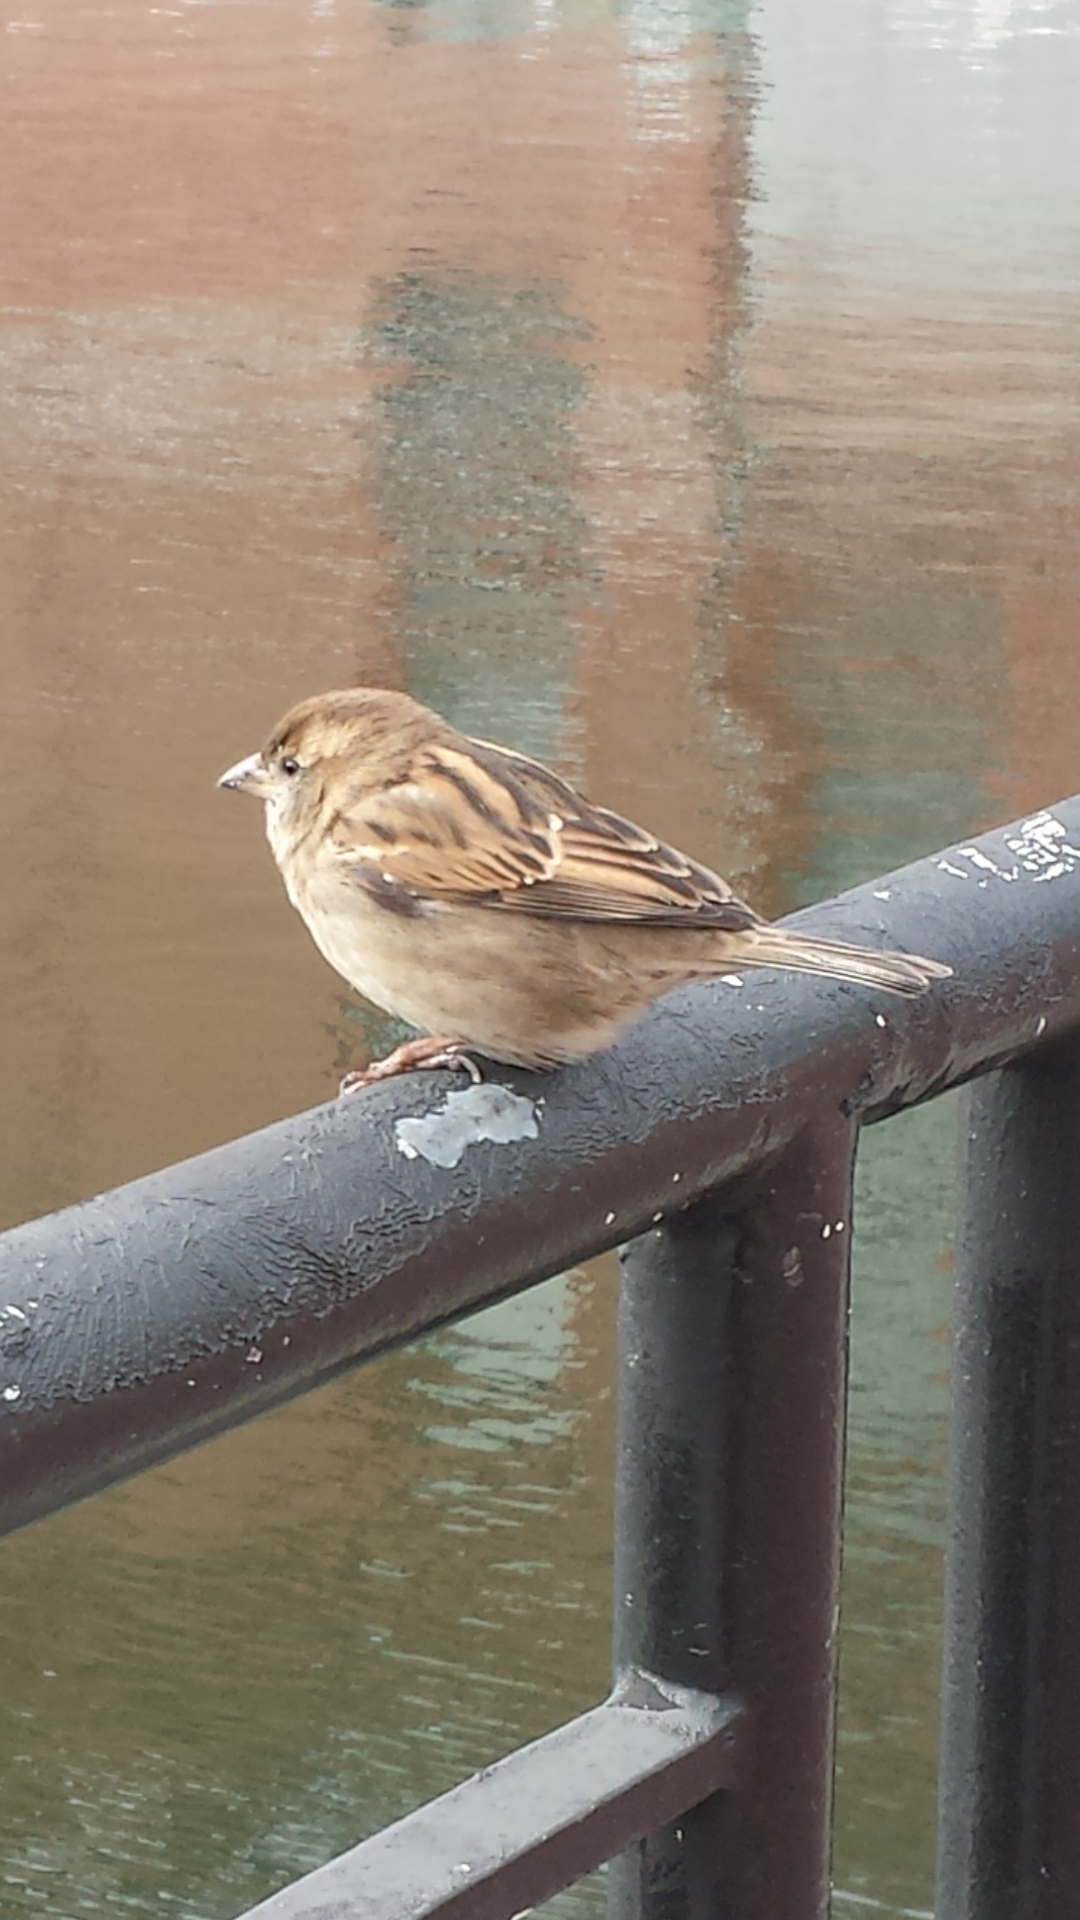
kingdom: Animalia
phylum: Chordata
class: Aves
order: Passeriformes
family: Passeridae
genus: Passer
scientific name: Passer domesticus
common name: House sparrow
